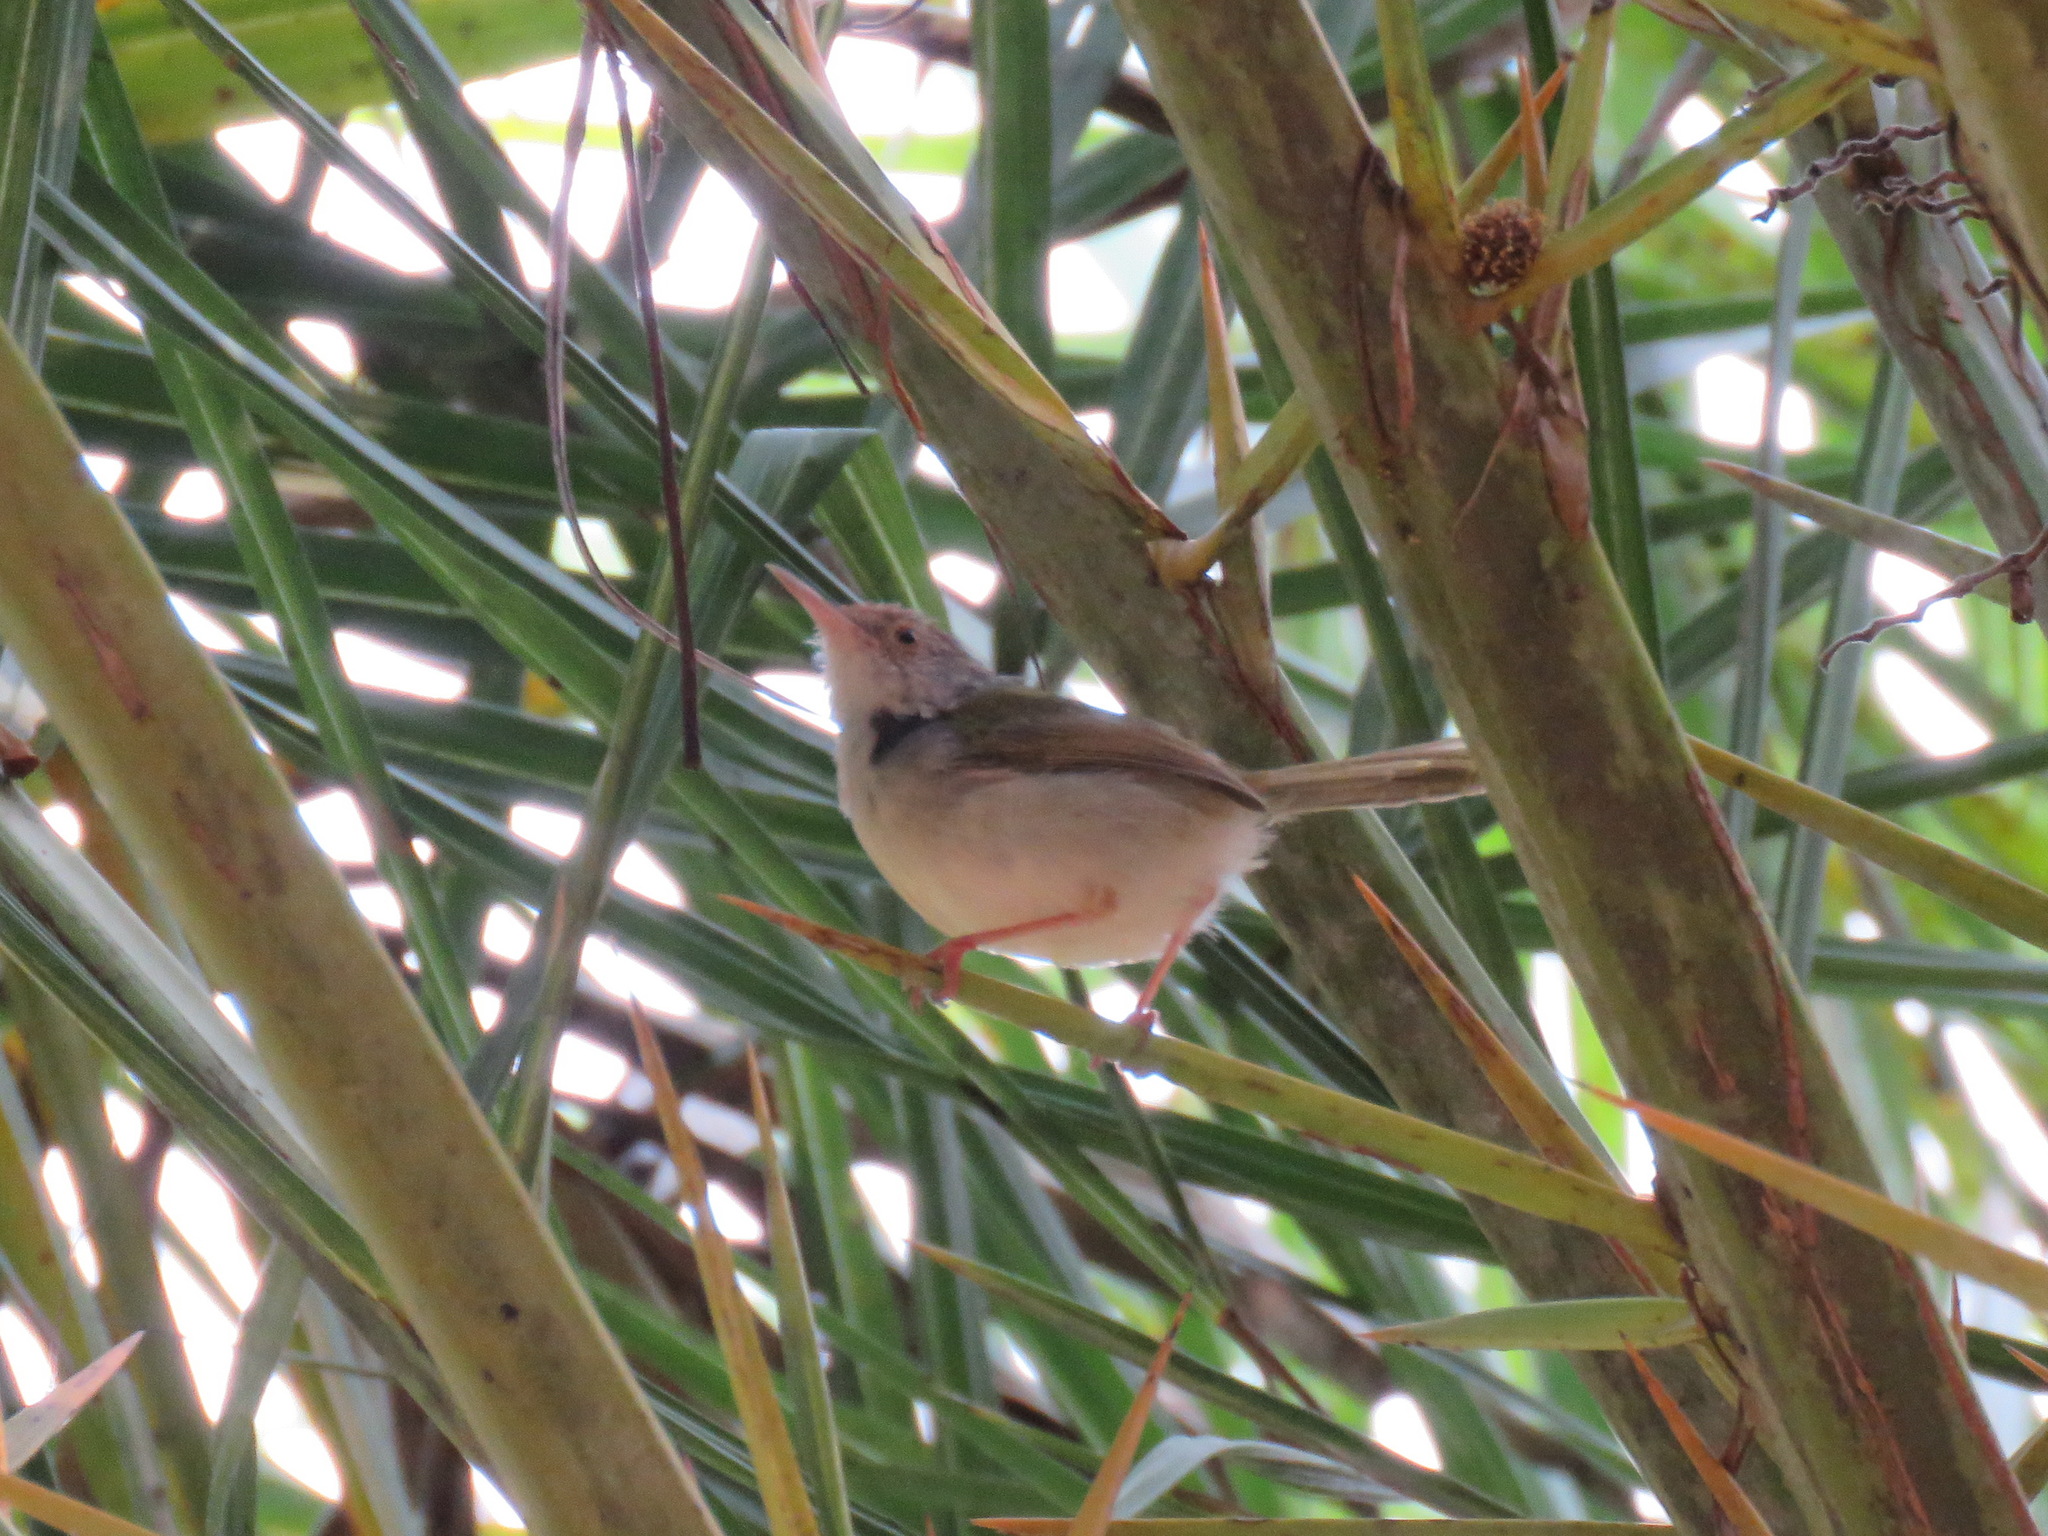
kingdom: Animalia
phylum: Chordata
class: Aves
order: Passeriformes
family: Cisticolidae
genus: Orthotomus
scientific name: Orthotomus sutorius
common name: Common tailorbird
